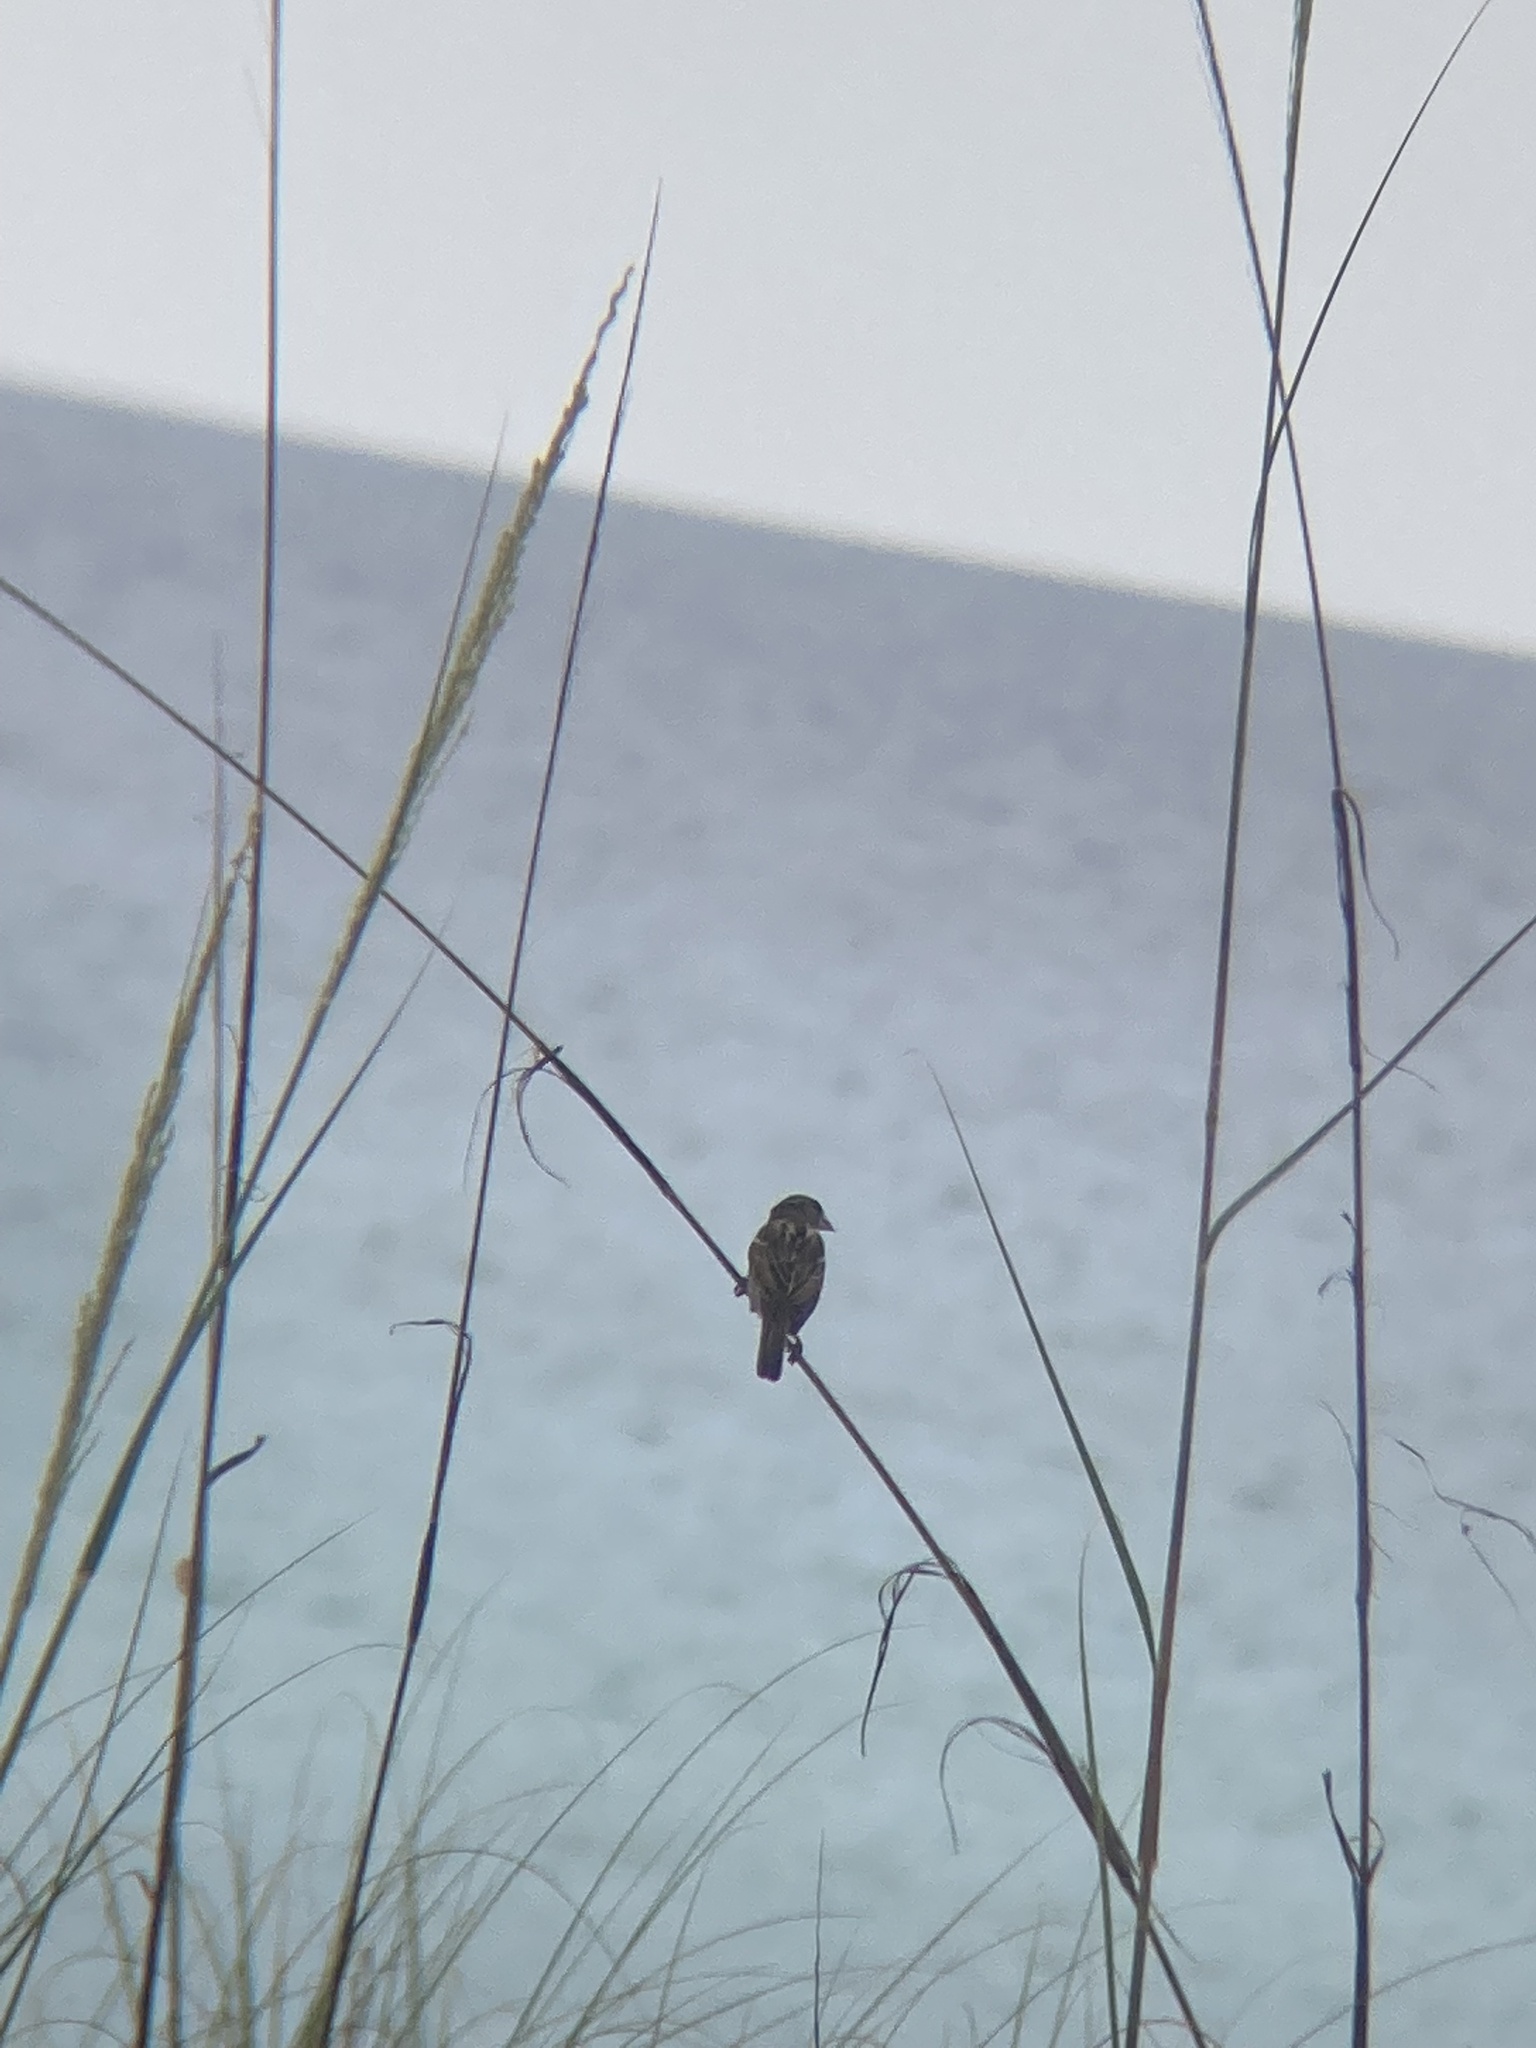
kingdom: Animalia
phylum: Chordata
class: Aves
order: Passeriformes
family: Passeridae
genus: Passer
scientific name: Passer domesticus
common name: House sparrow
